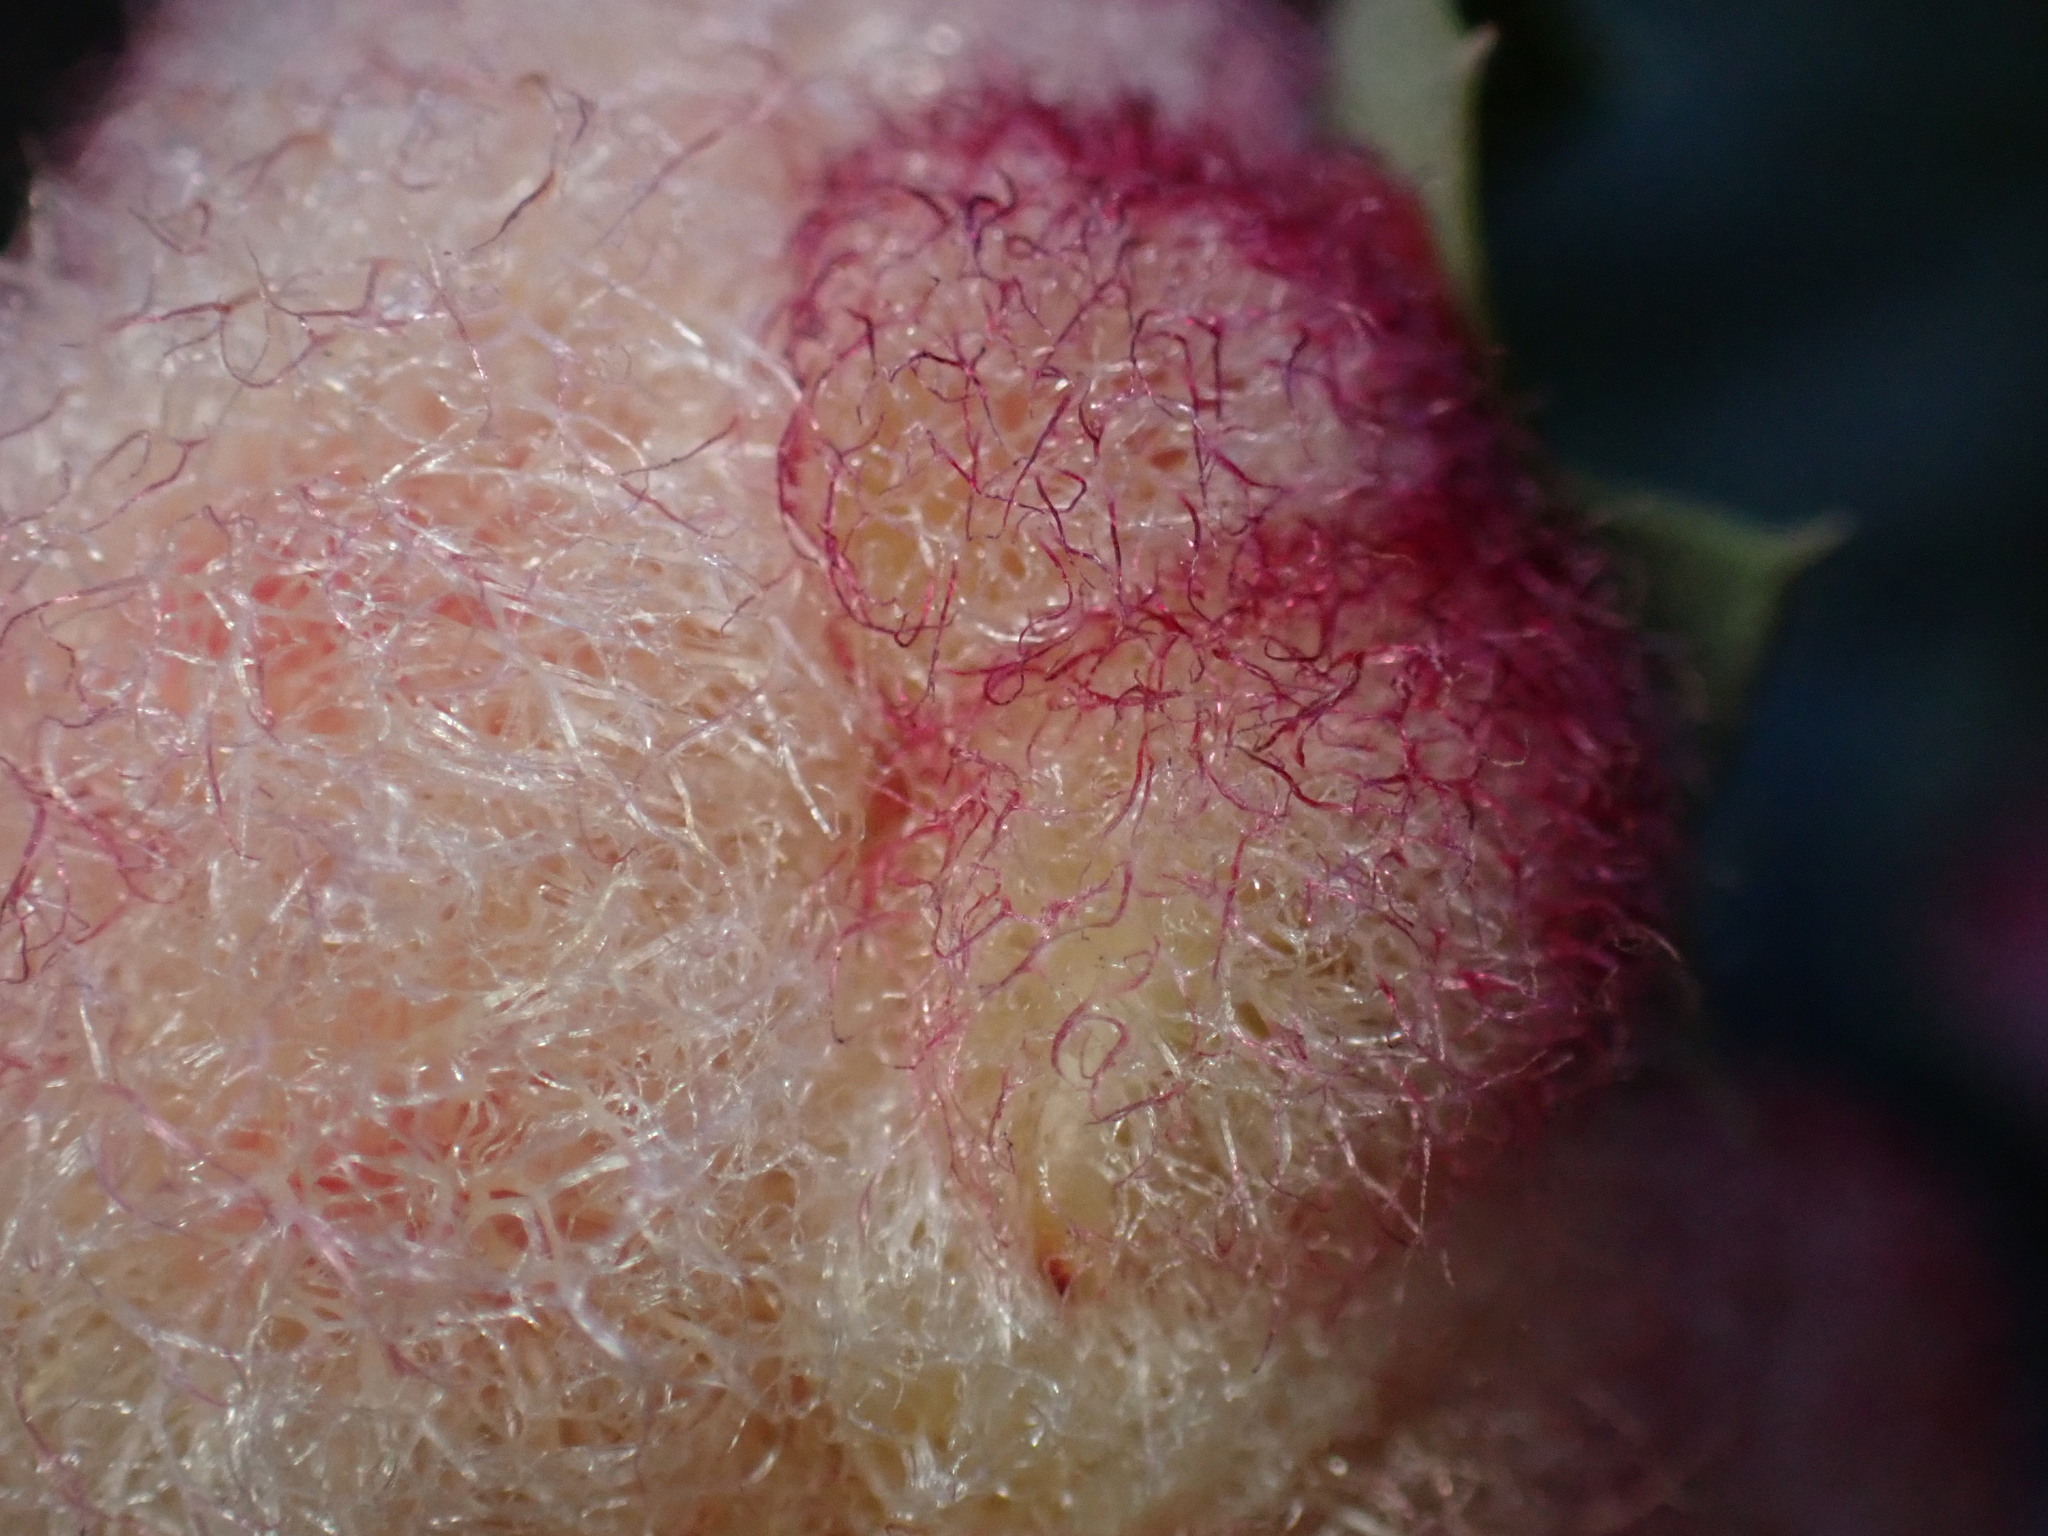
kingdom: Animalia
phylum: Arthropoda
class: Insecta
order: Hymenoptera
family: Cynipidae
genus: Andricus
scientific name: Andricus
